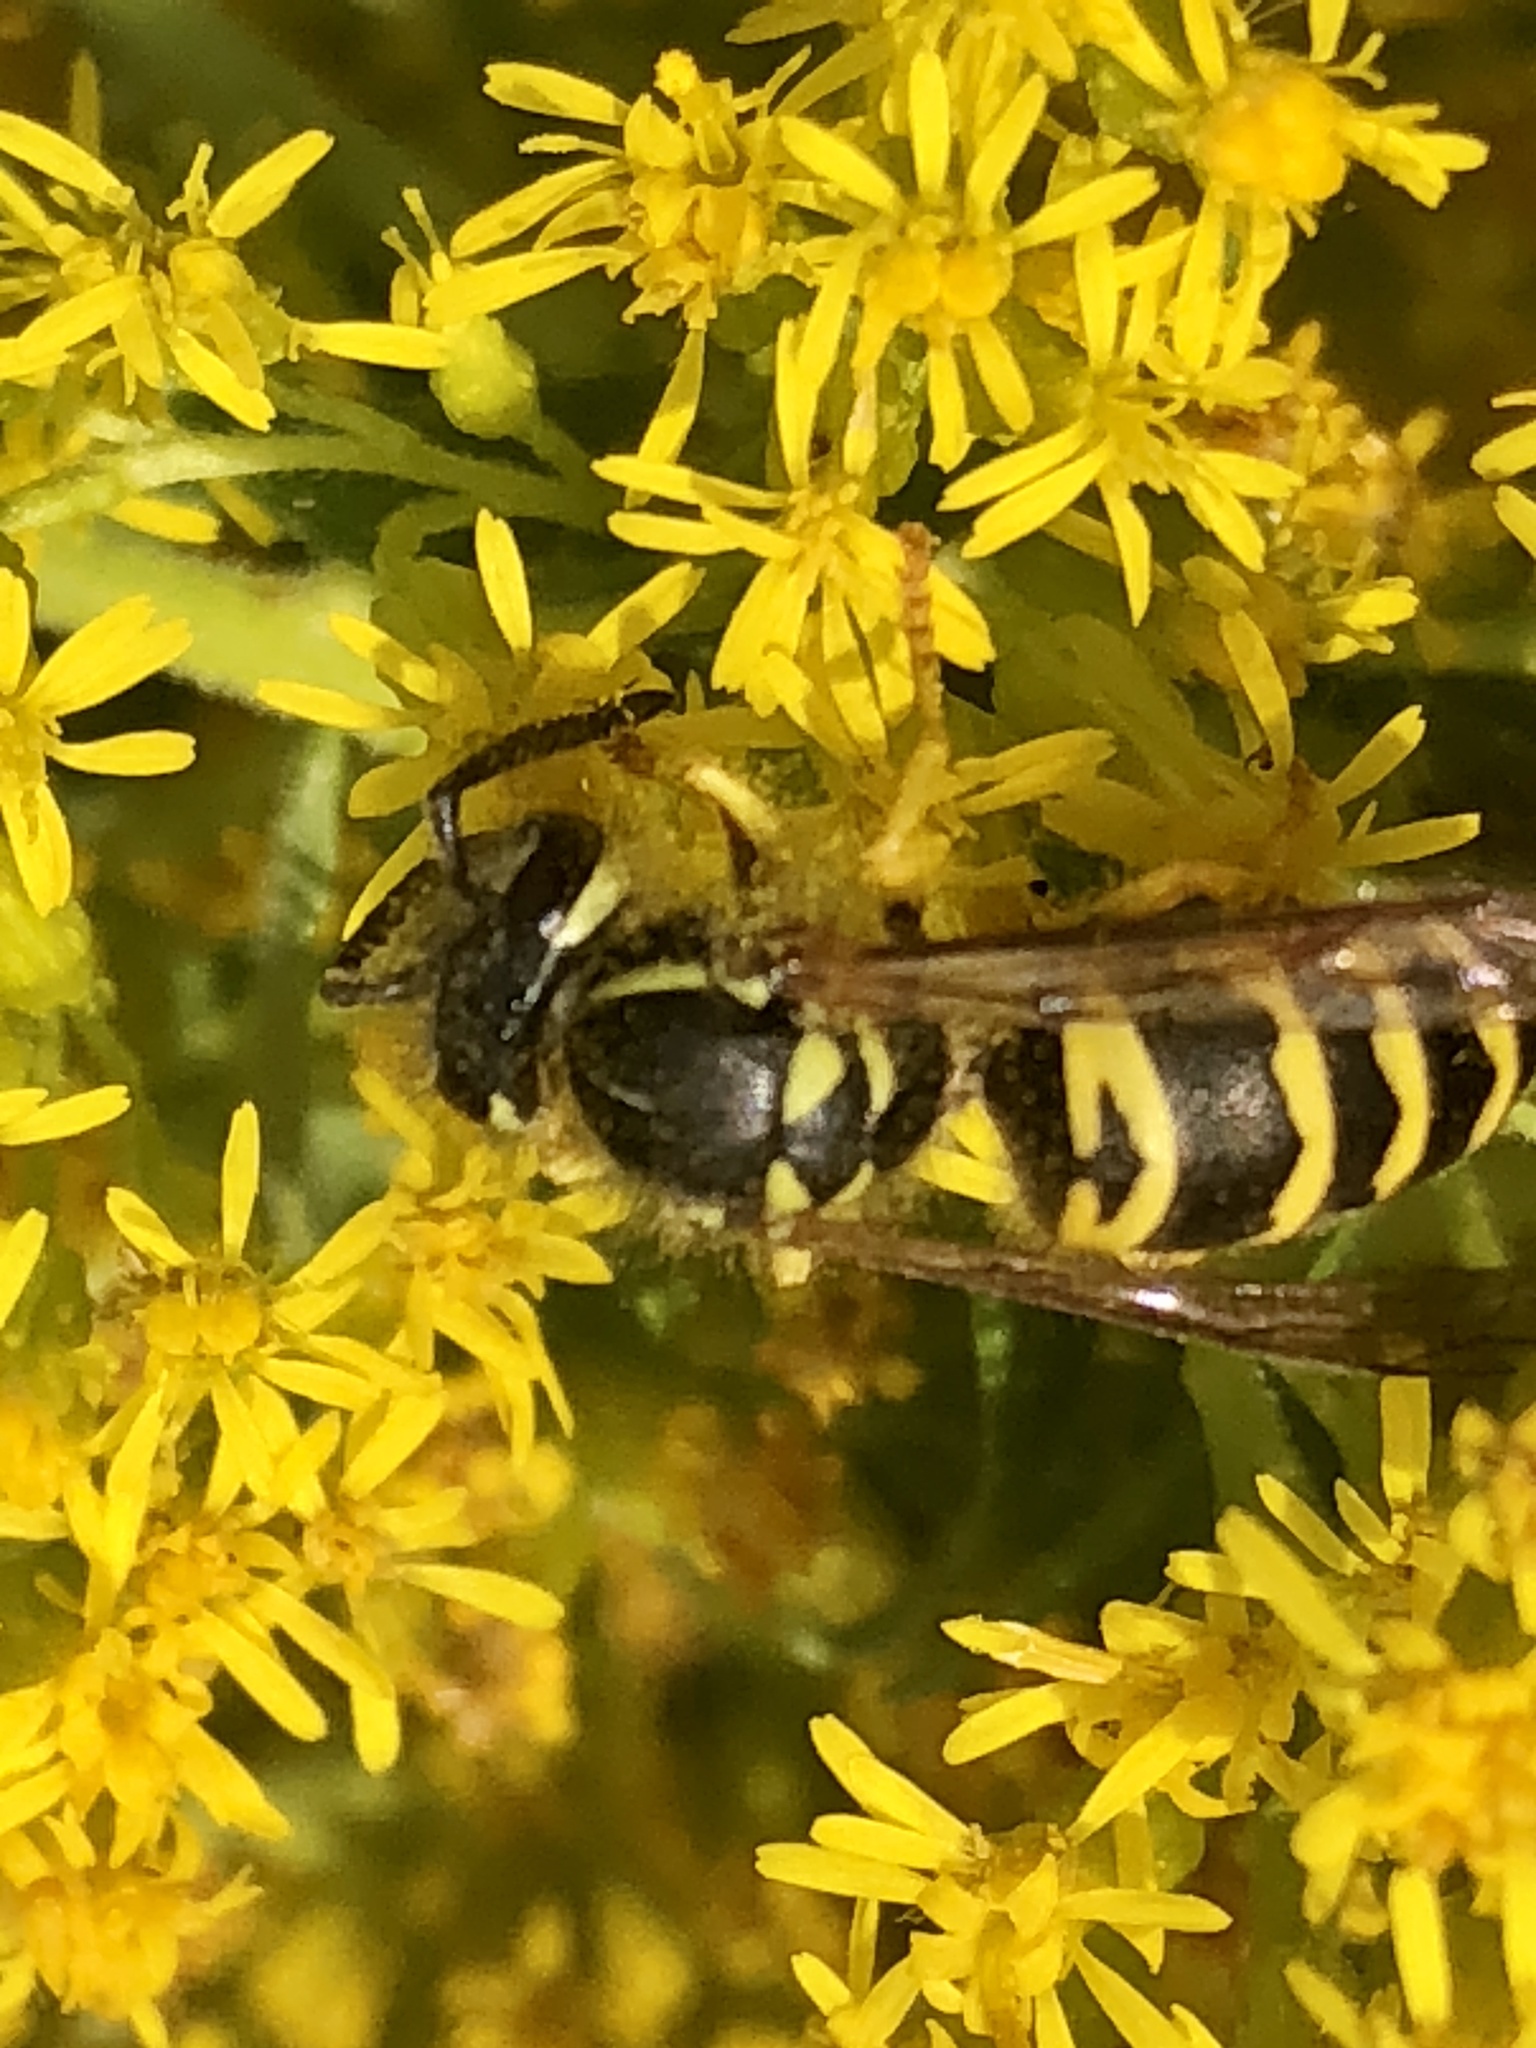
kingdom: Animalia
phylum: Arthropoda
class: Insecta
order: Hymenoptera
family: Vespidae
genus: Vespula
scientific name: Vespula maculifrons
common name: Eastern yellowjacket
